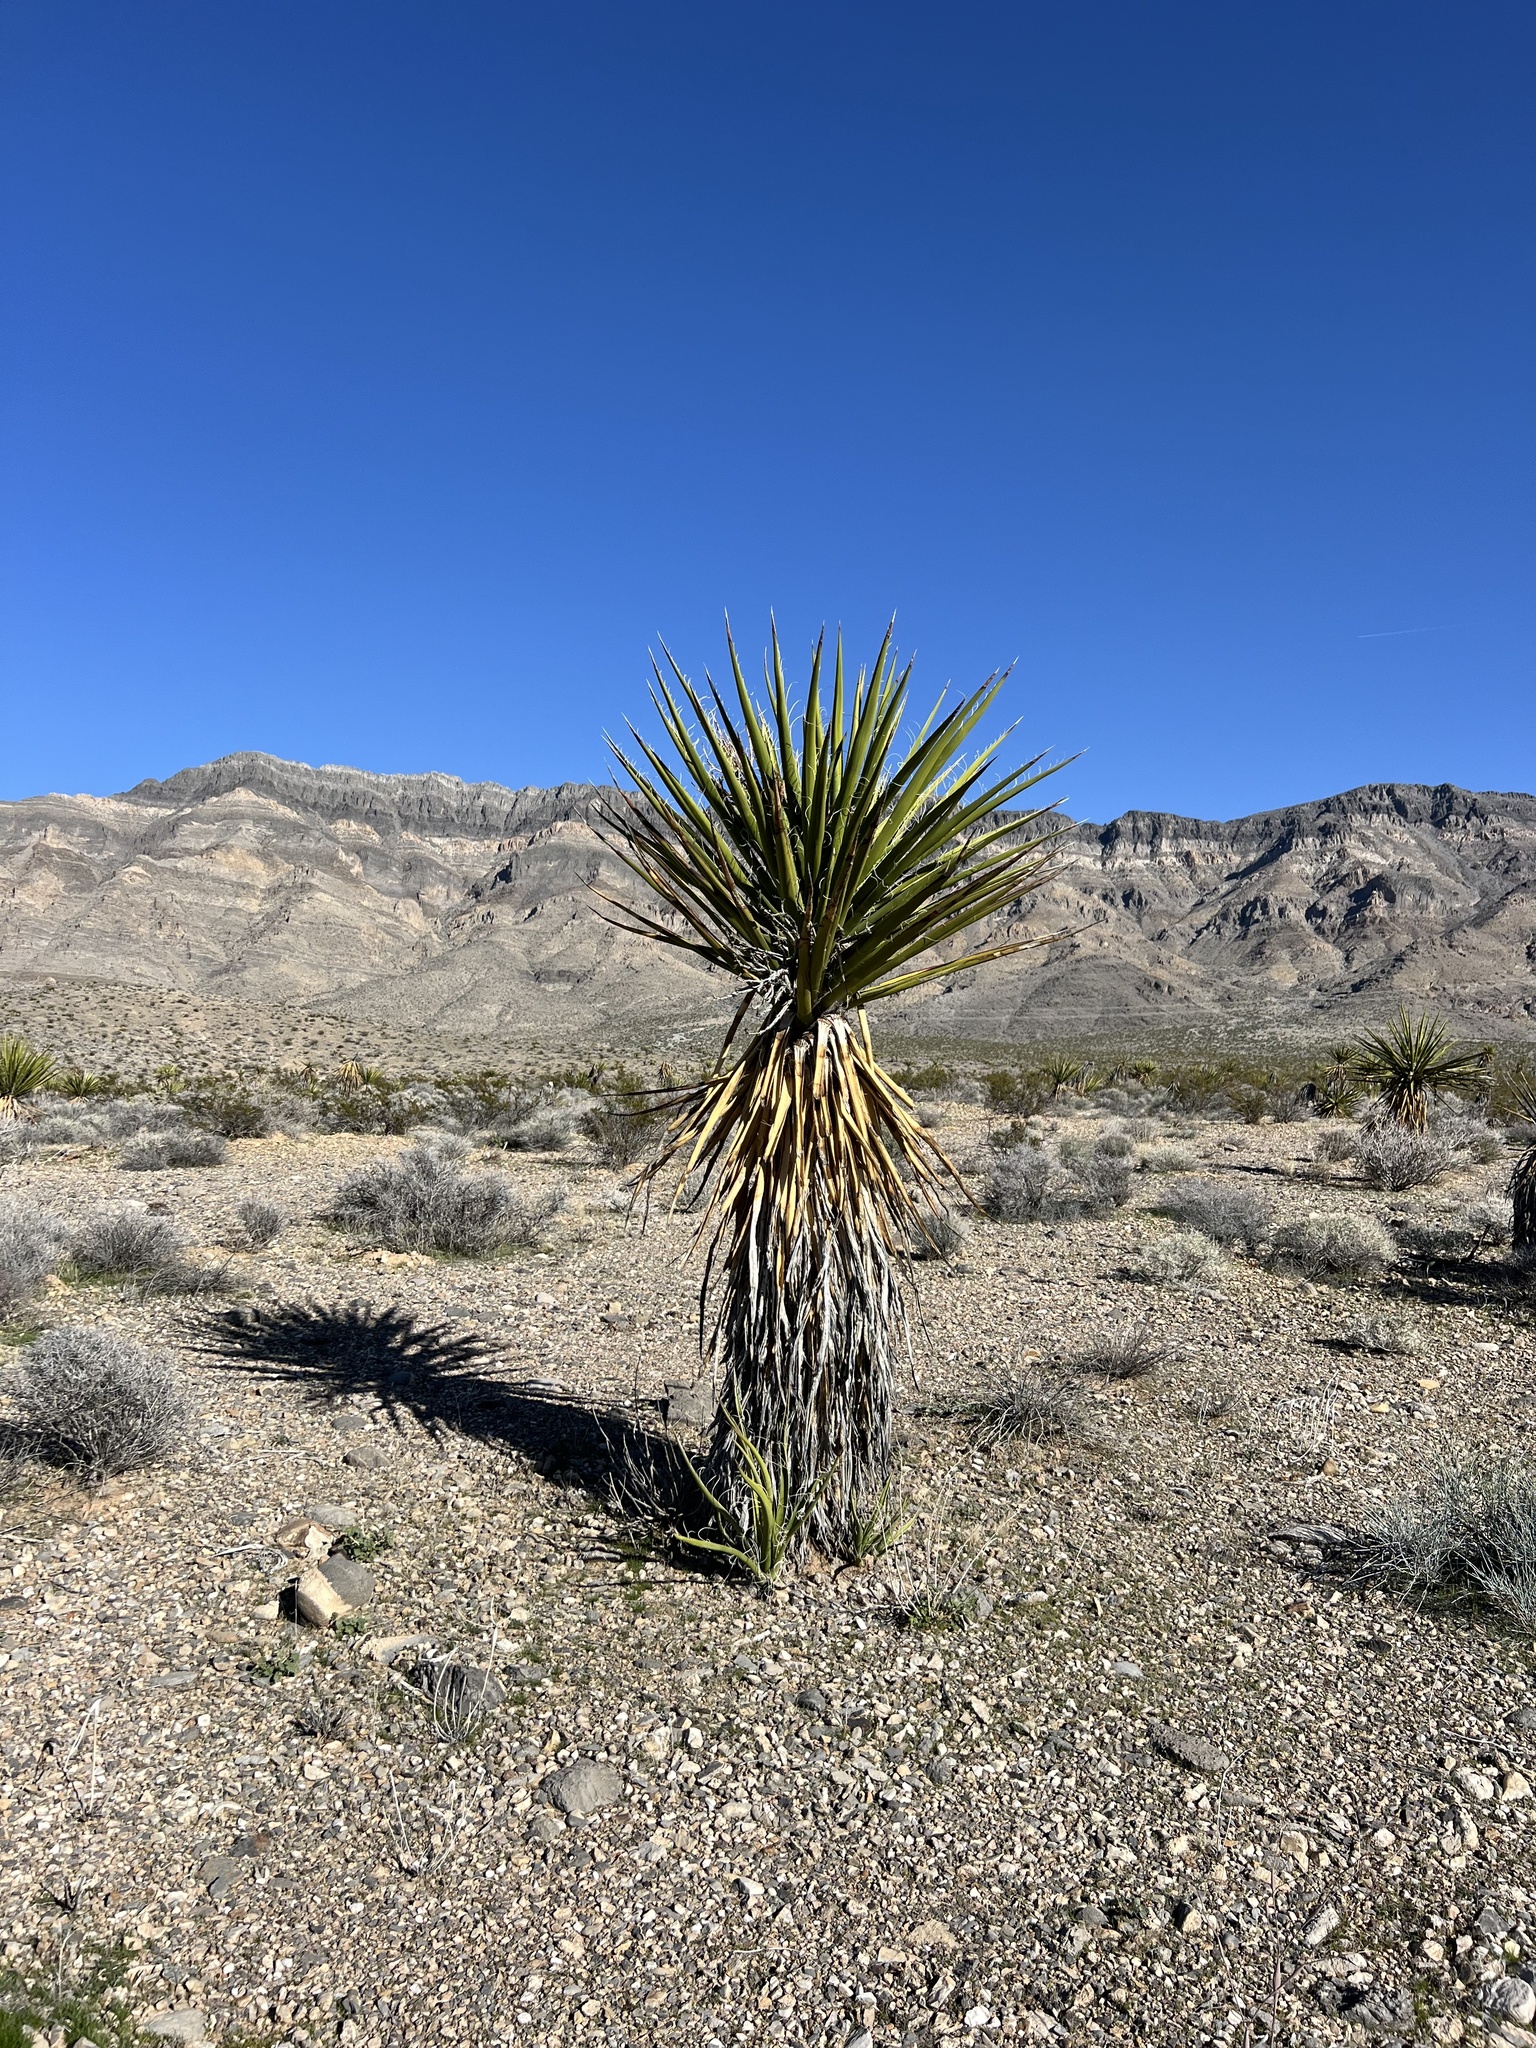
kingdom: Plantae
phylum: Tracheophyta
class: Liliopsida
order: Asparagales
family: Asparagaceae
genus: Yucca
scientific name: Yucca schidigera
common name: Mojave yucca
